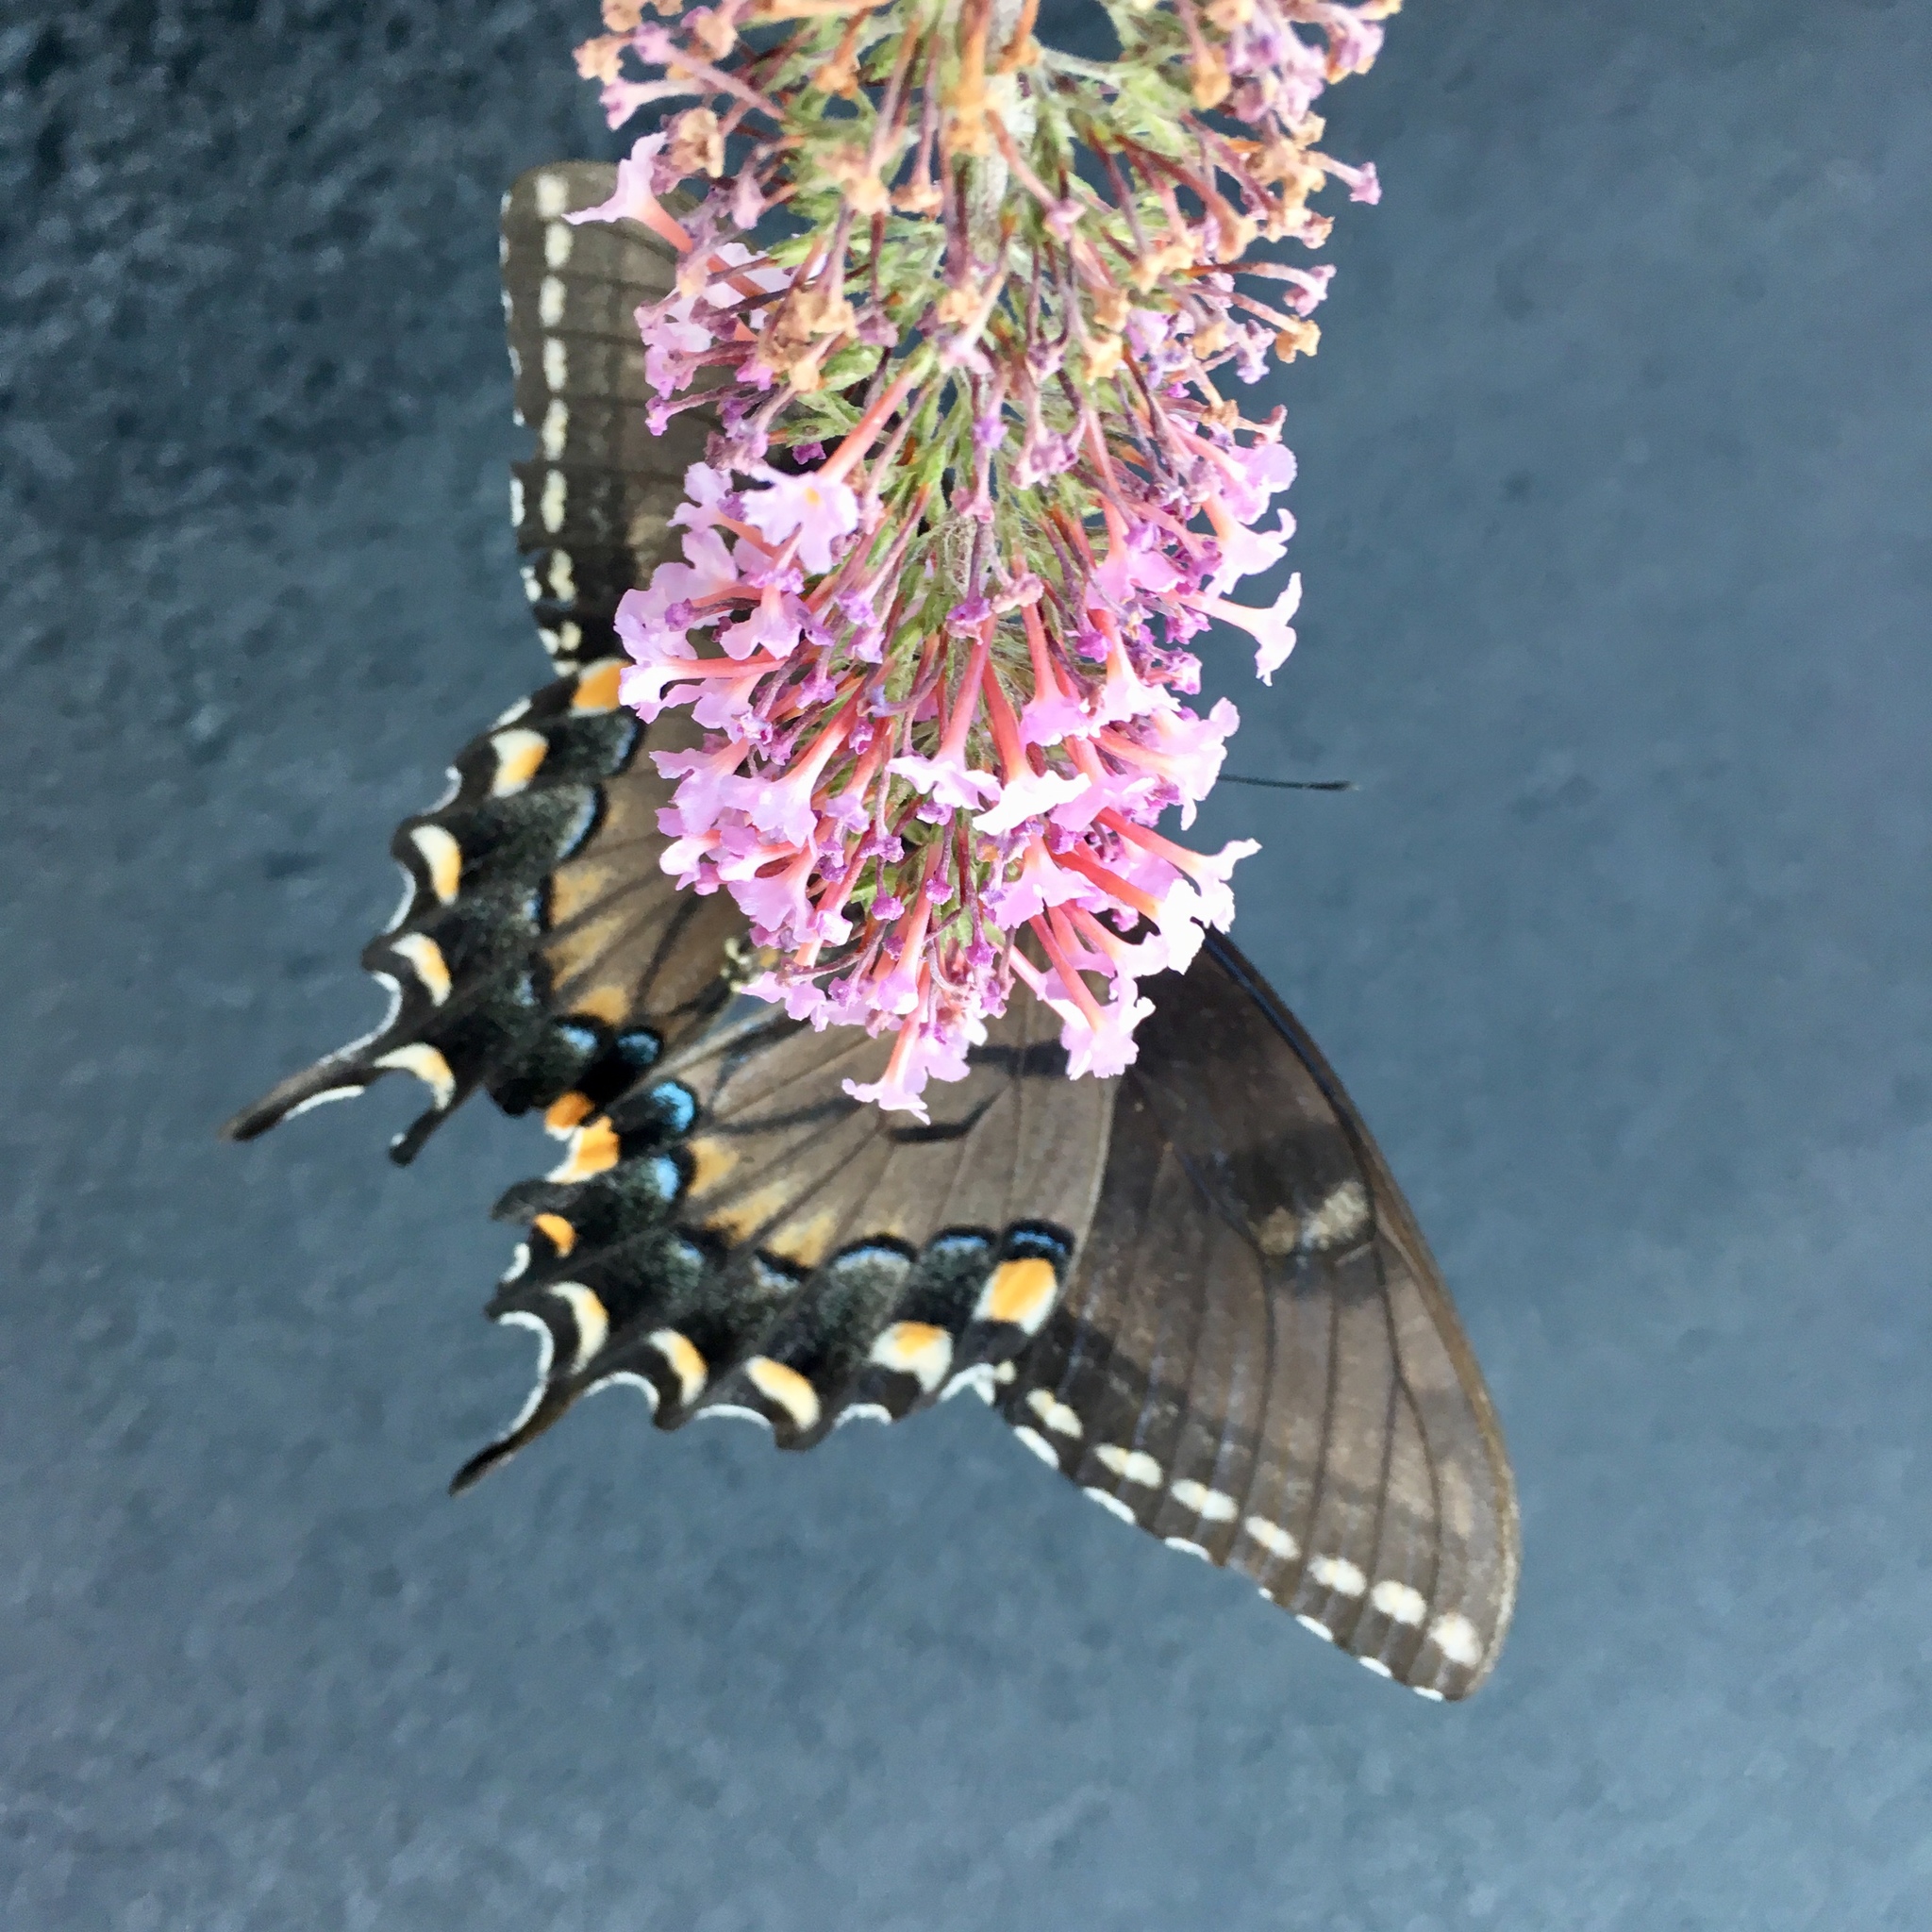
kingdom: Animalia
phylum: Arthropoda
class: Insecta
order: Lepidoptera
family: Papilionidae
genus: Papilio
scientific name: Papilio glaucus
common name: Tiger swallowtail
